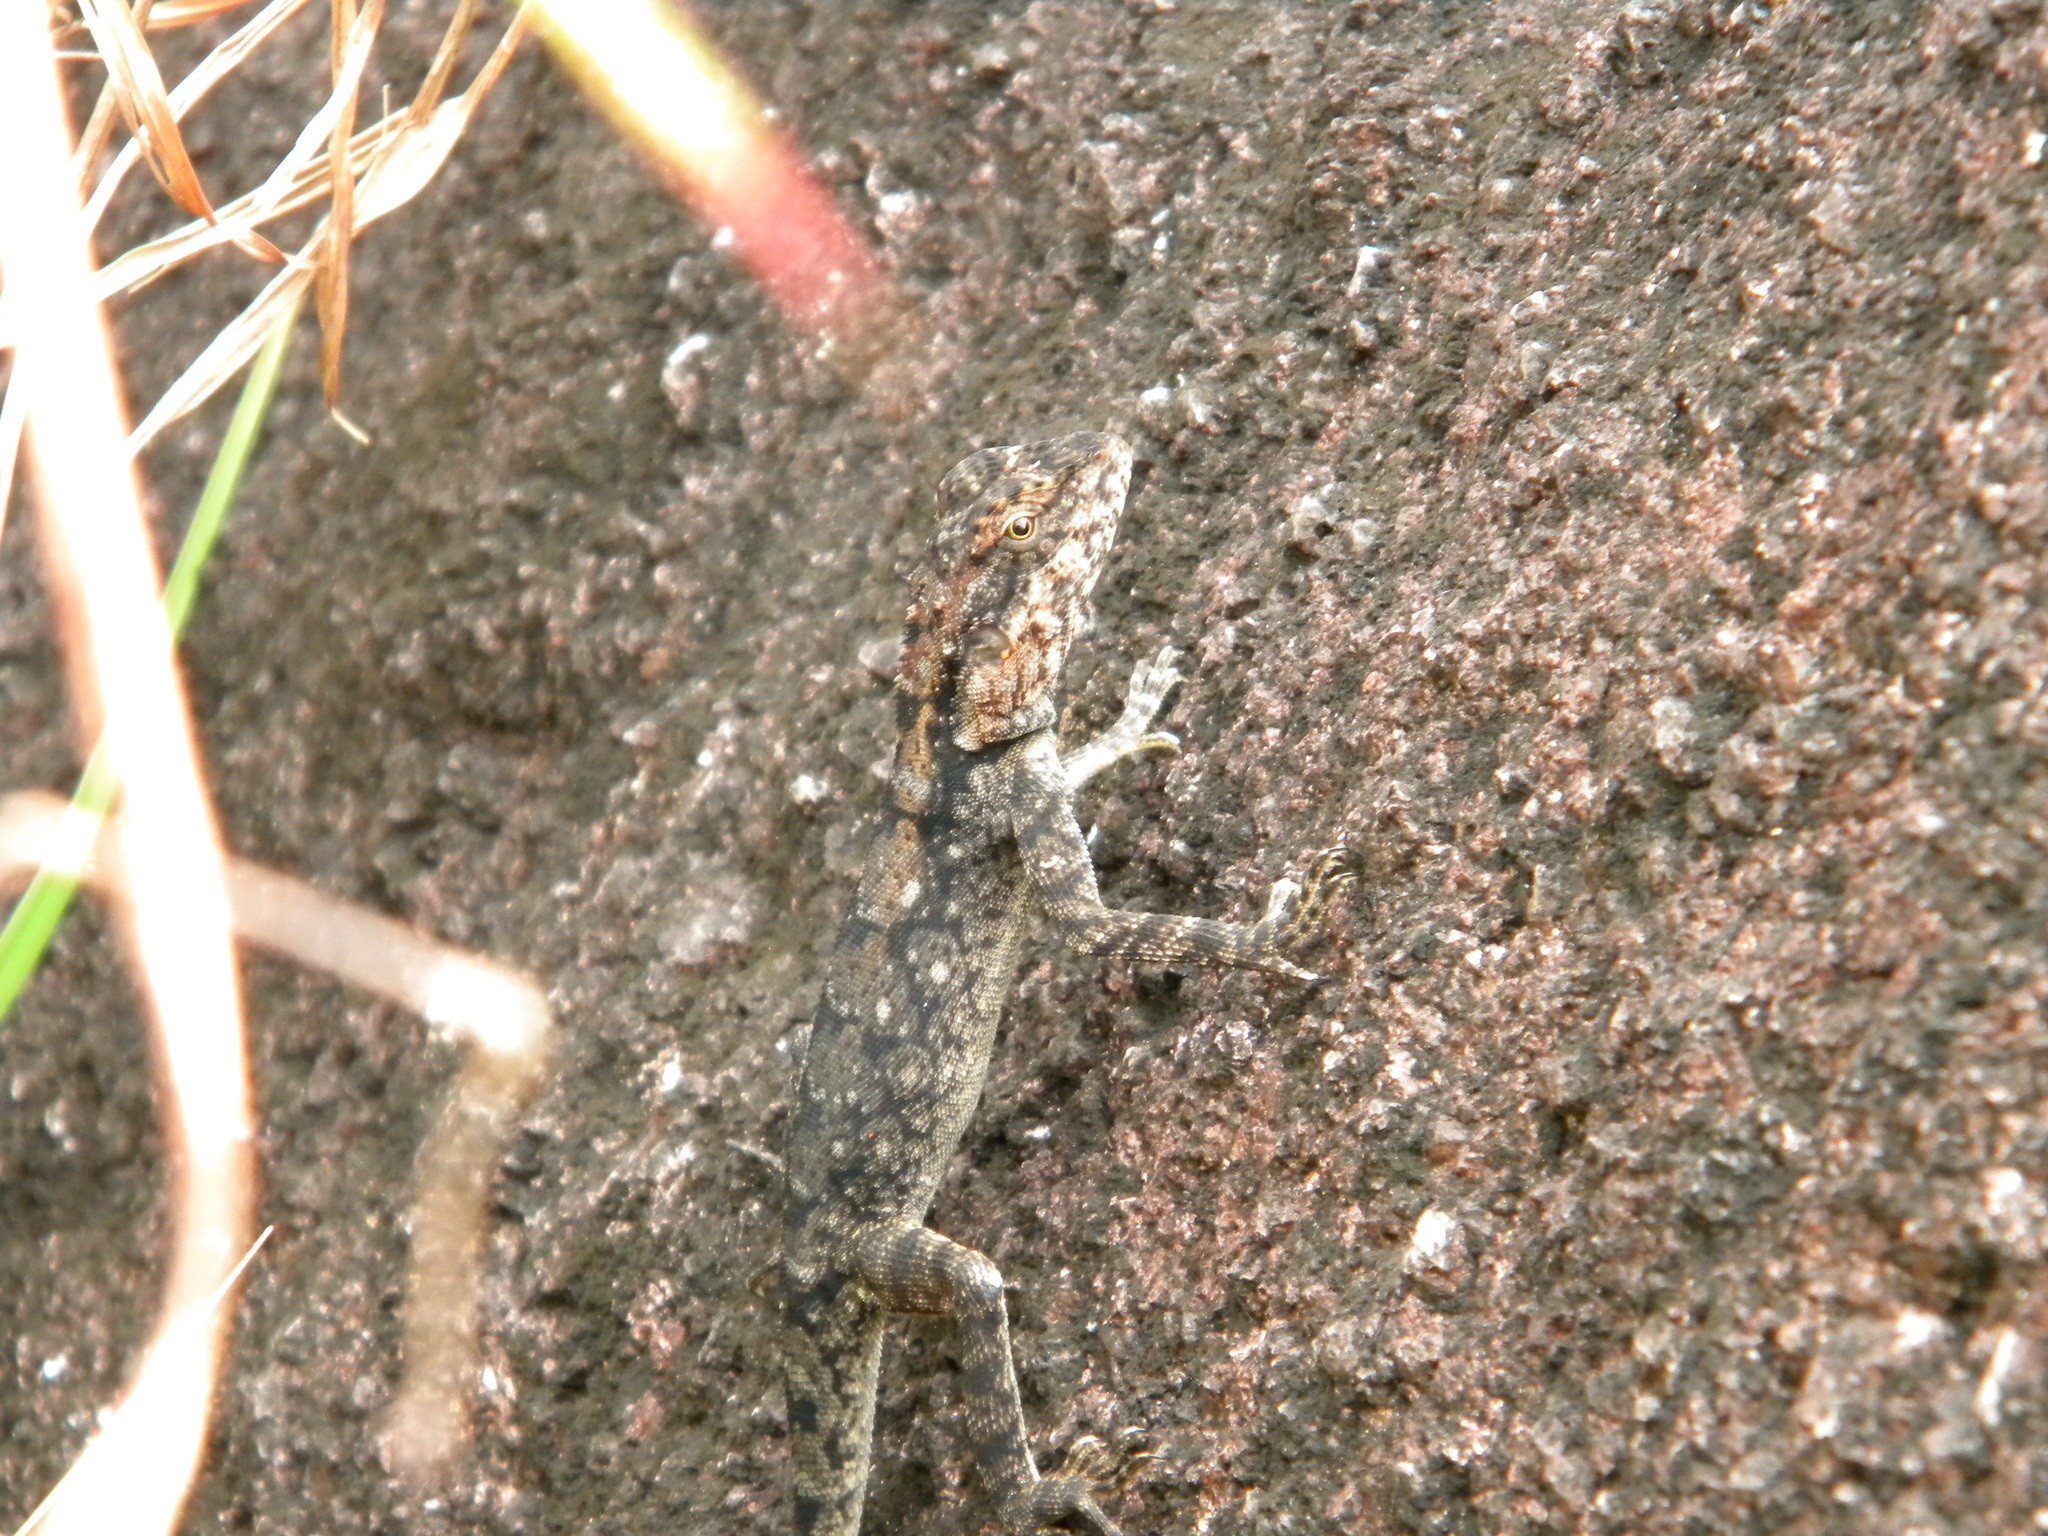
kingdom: Animalia
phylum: Chordata
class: Squamata
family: Agamidae
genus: Psammophilus
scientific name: Psammophilus dorsalis
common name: South indian rock agama
